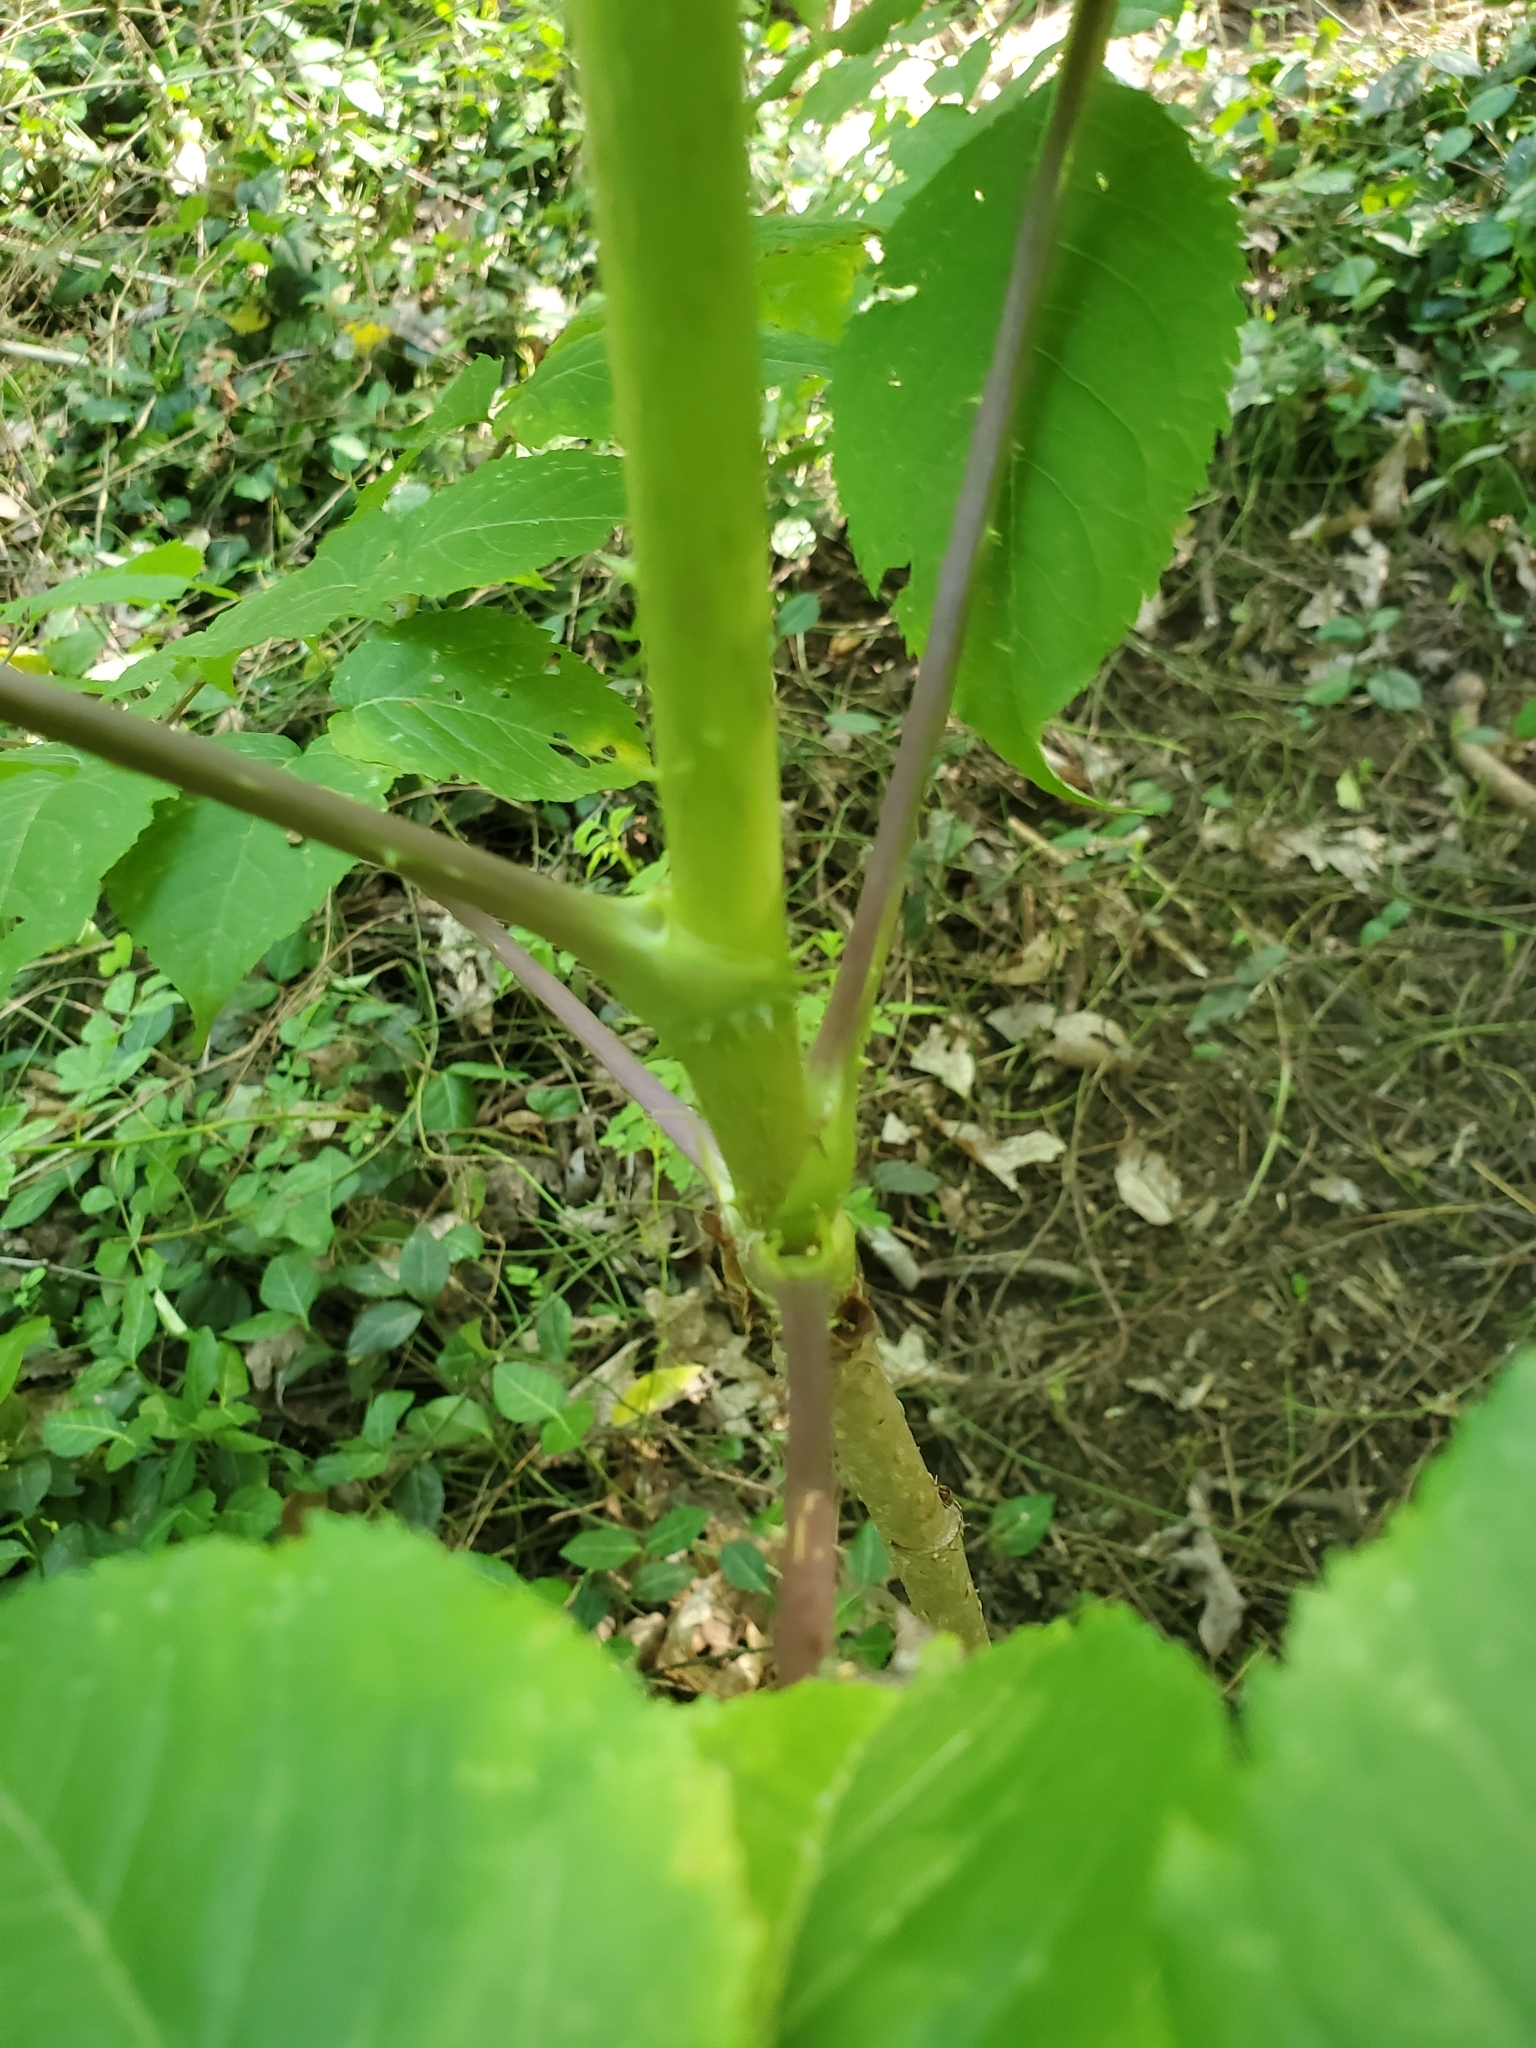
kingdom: Plantae
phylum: Tracheophyta
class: Magnoliopsida
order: Apiales
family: Araliaceae
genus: Aralia
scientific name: Aralia spinosa
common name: Hercules'-club
